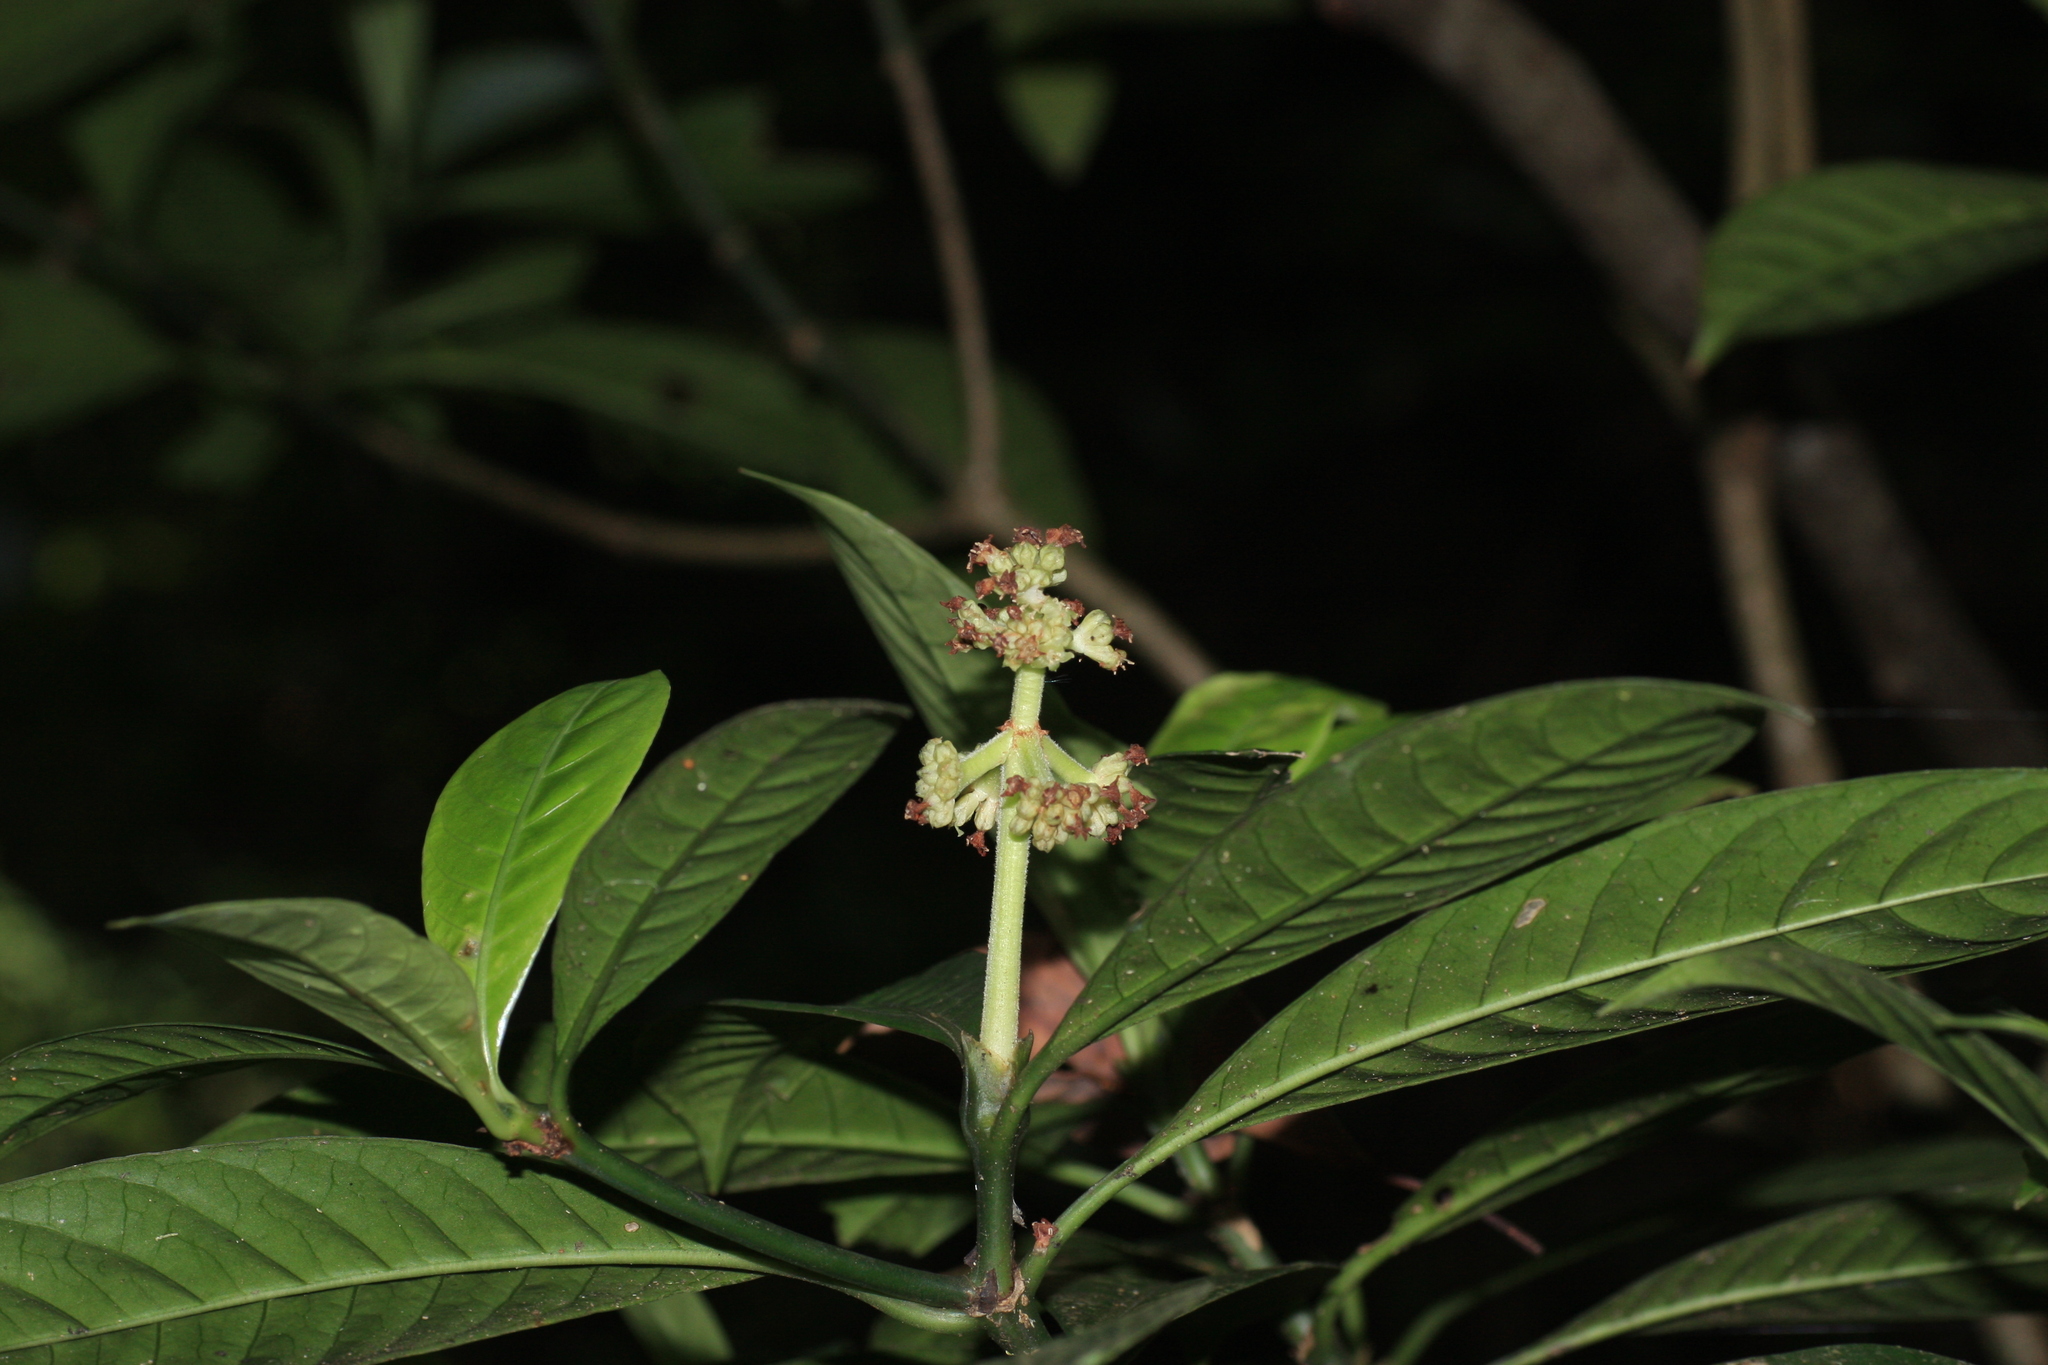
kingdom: Plantae
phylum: Tracheophyta
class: Magnoliopsida
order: Gentianales
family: Rubiaceae
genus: Psychotria
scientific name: Psychotria anamallayana
